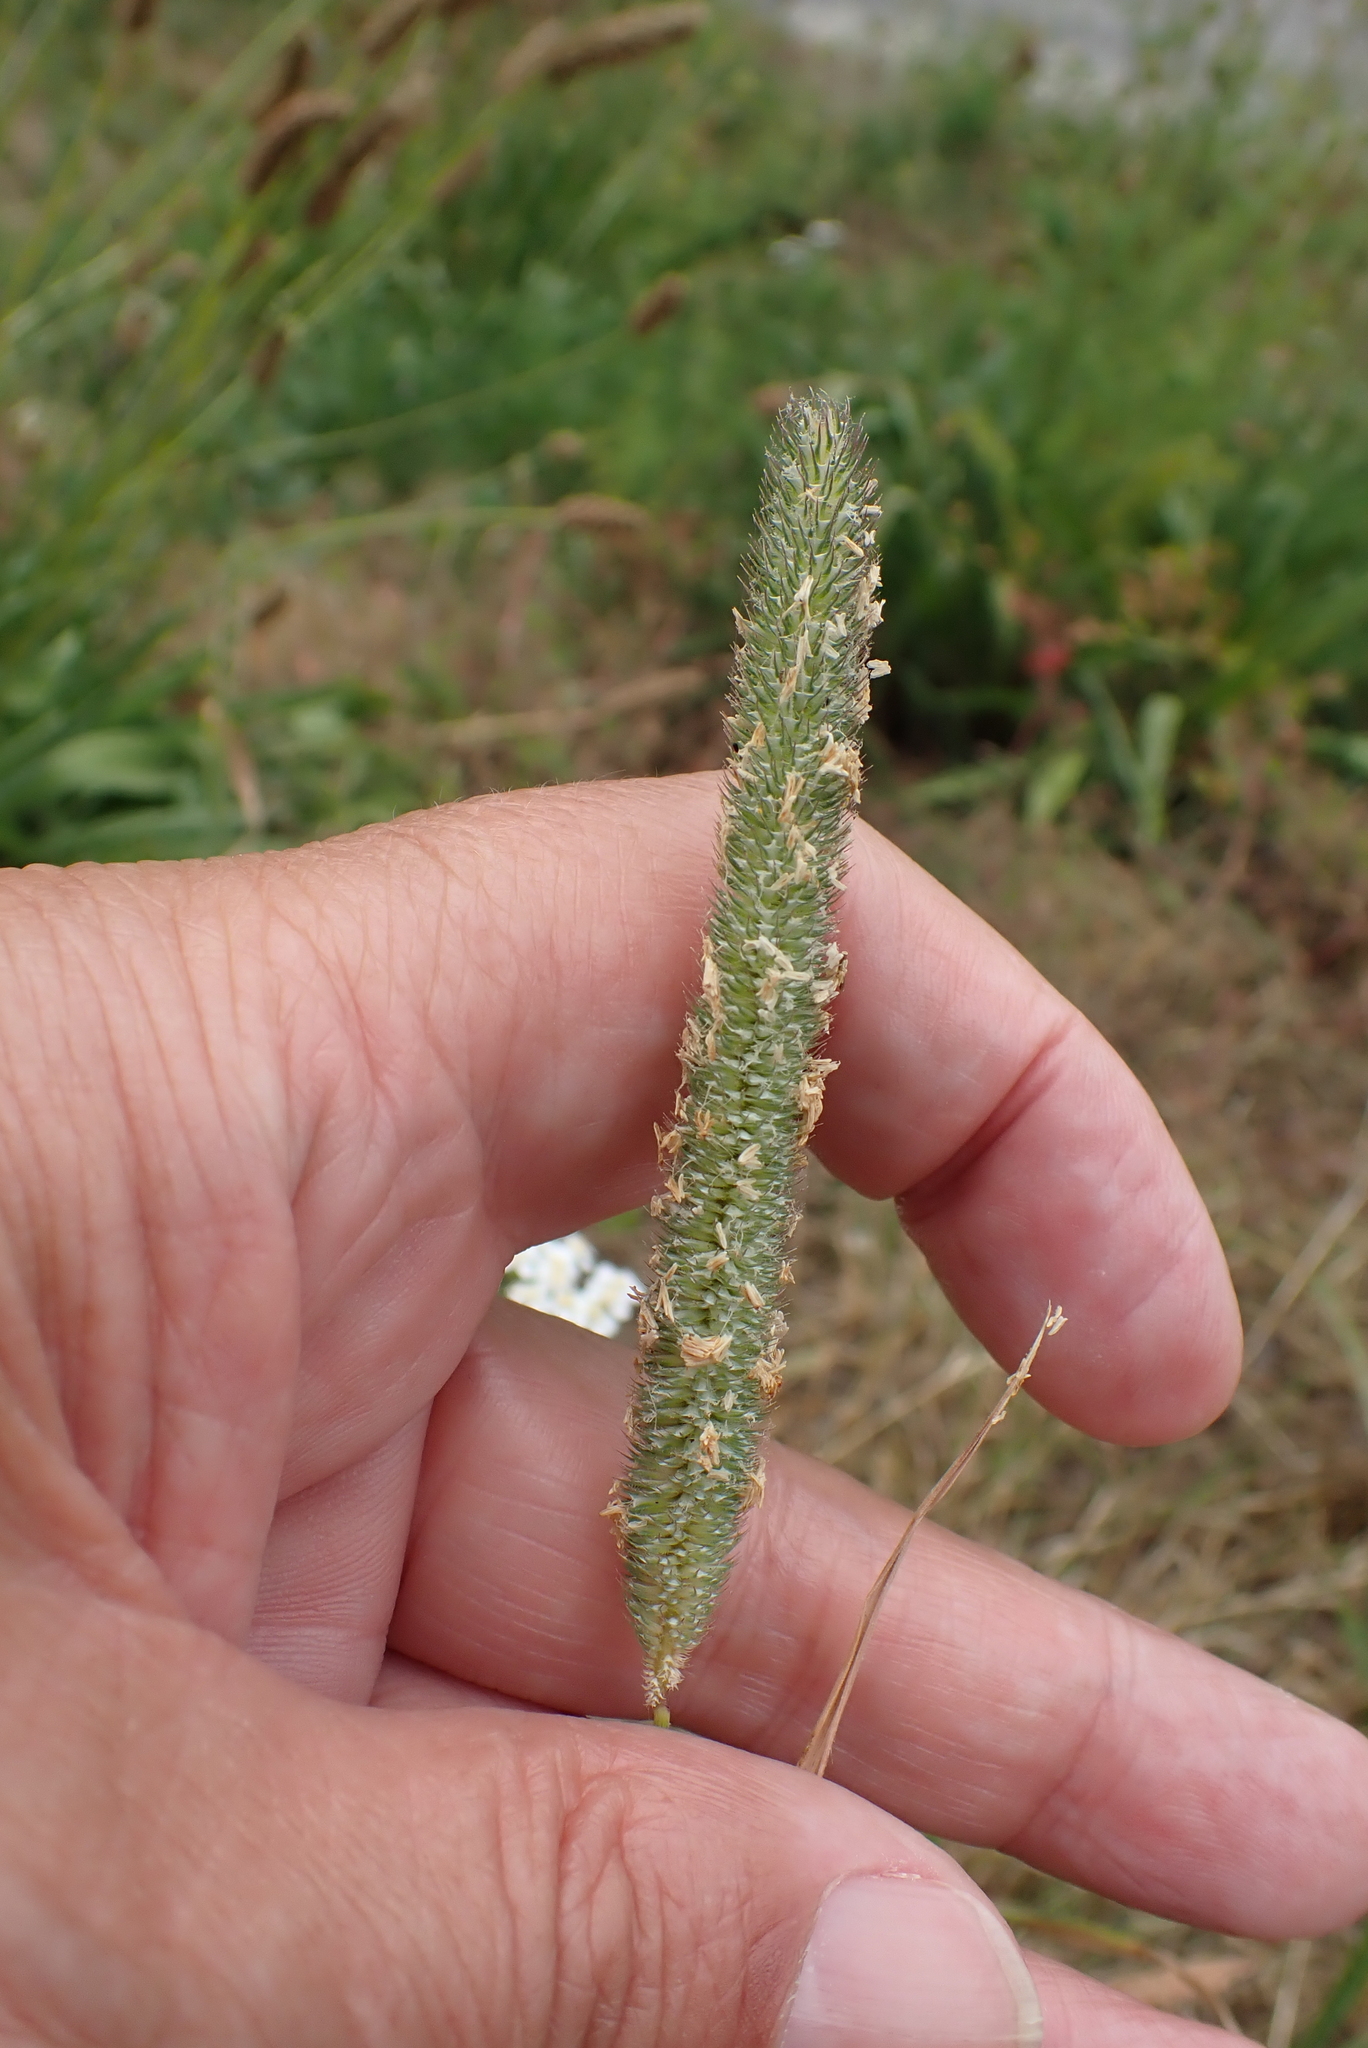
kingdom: Plantae
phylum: Tracheophyta
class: Liliopsida
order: Poales
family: Poaceae
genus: Phleum
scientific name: Phleum pratense
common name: Timothy grass
